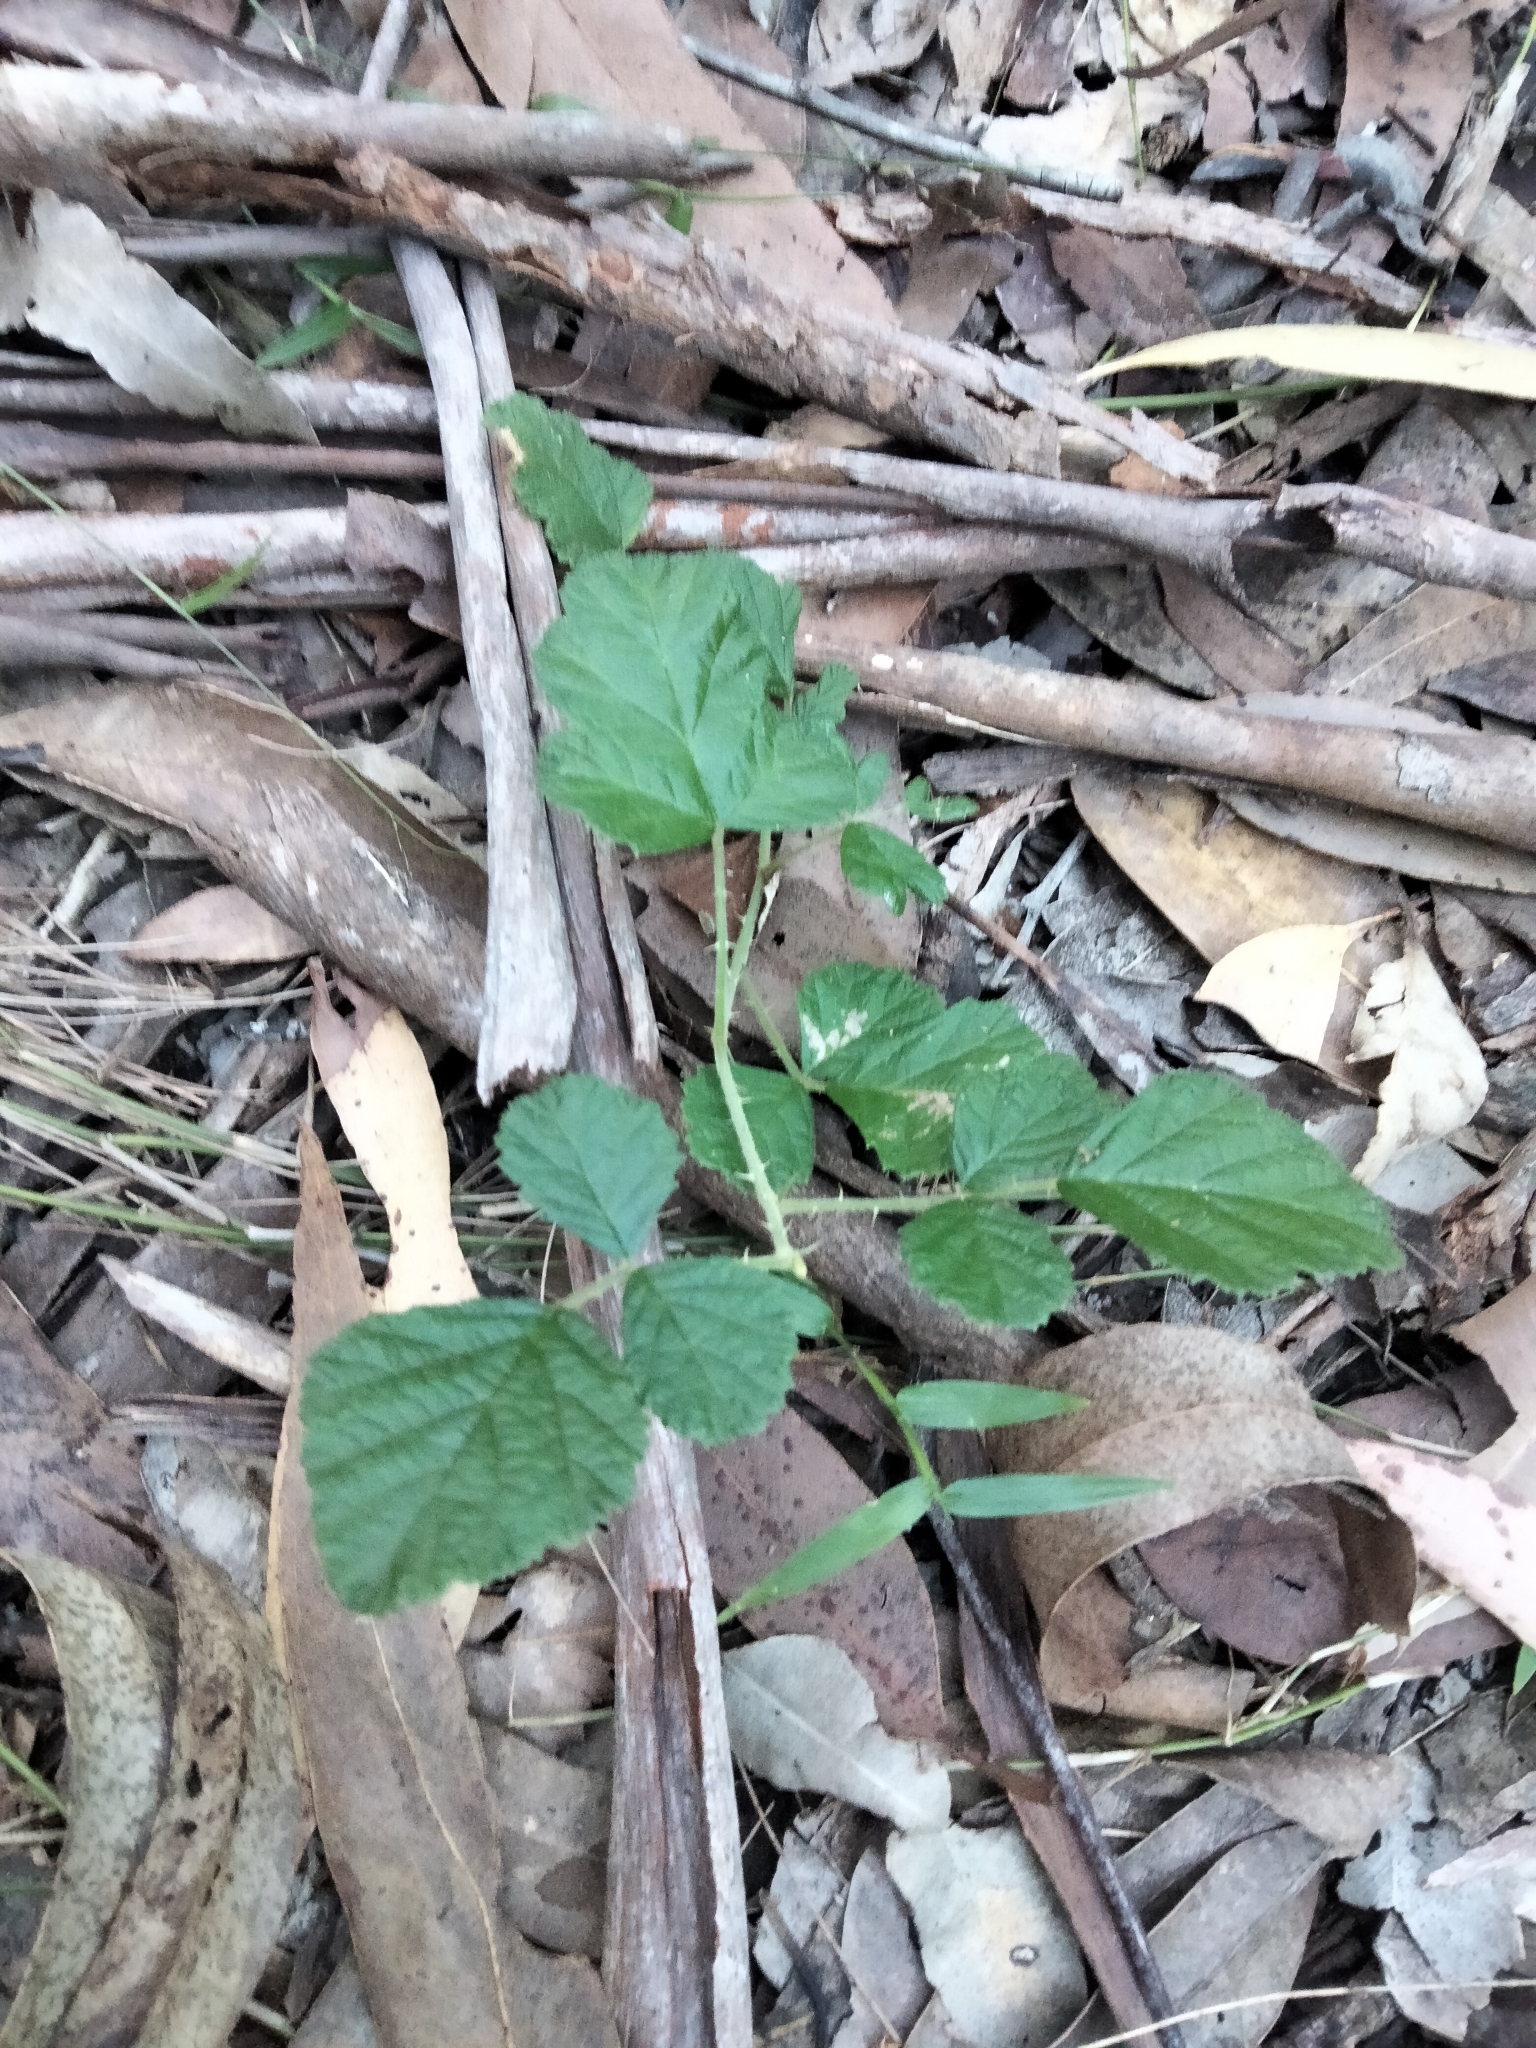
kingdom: Plantae
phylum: Tracheophyta
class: Magnoliopsida
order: Rosales
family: Rosaceae
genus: Rubus
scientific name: Rubus novus
